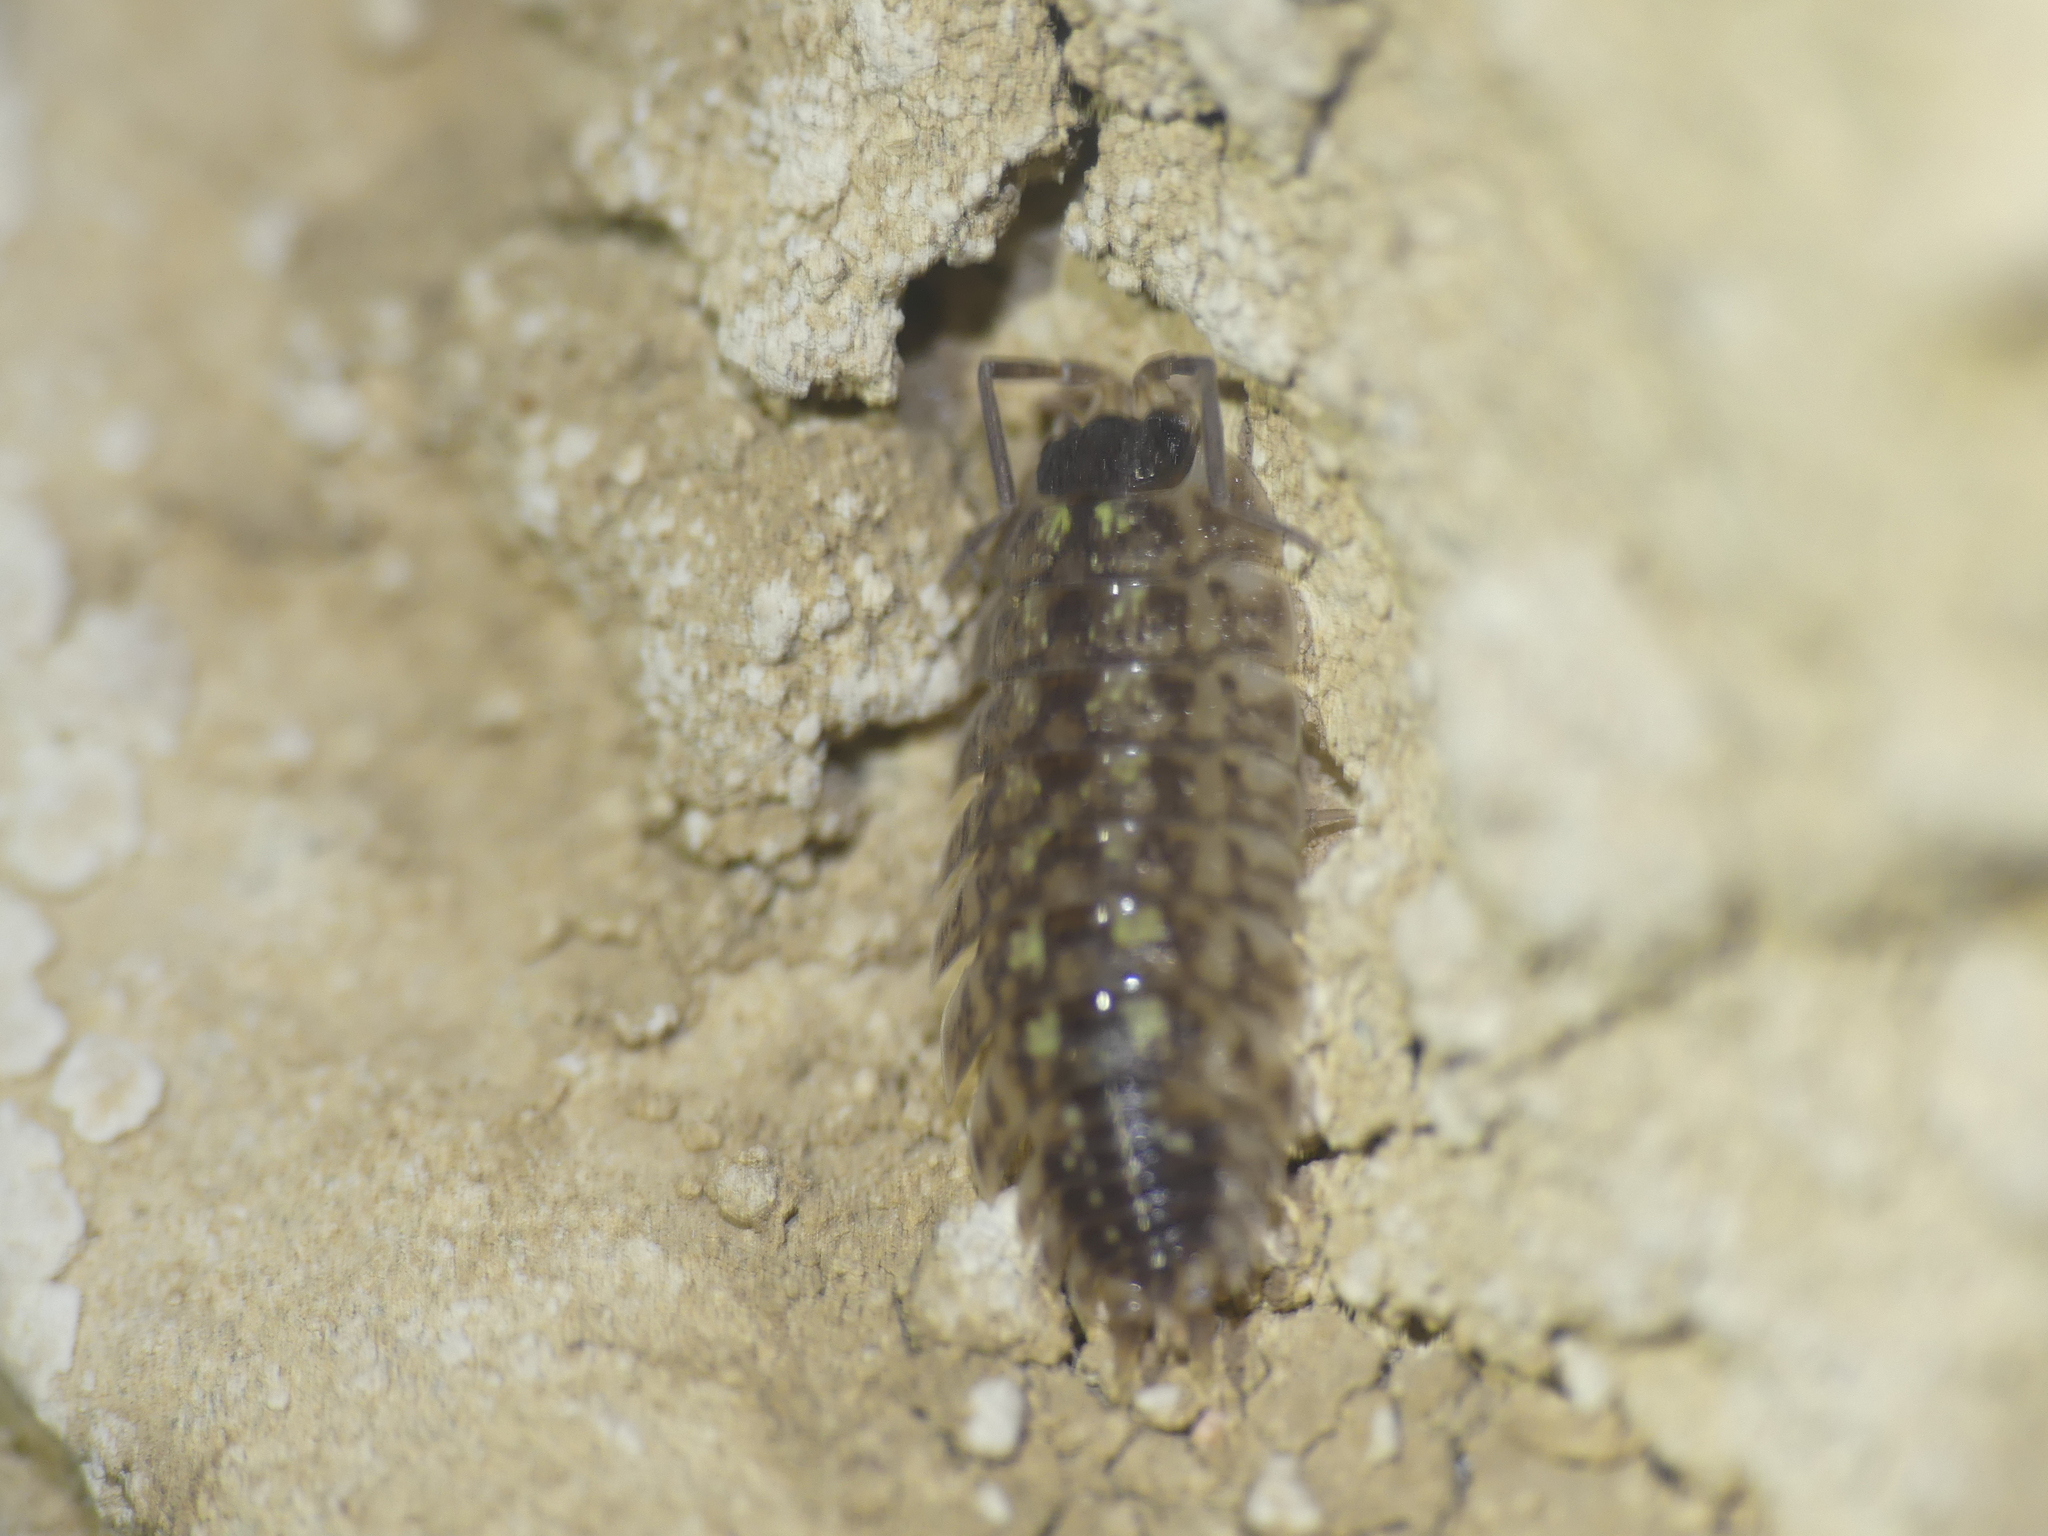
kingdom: Animalia
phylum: Arthropoda
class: Malacostraca
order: Isopoda
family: Porcellionidae
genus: Porcellio
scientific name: Porcellio spinicornis
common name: Painted woodlouse
